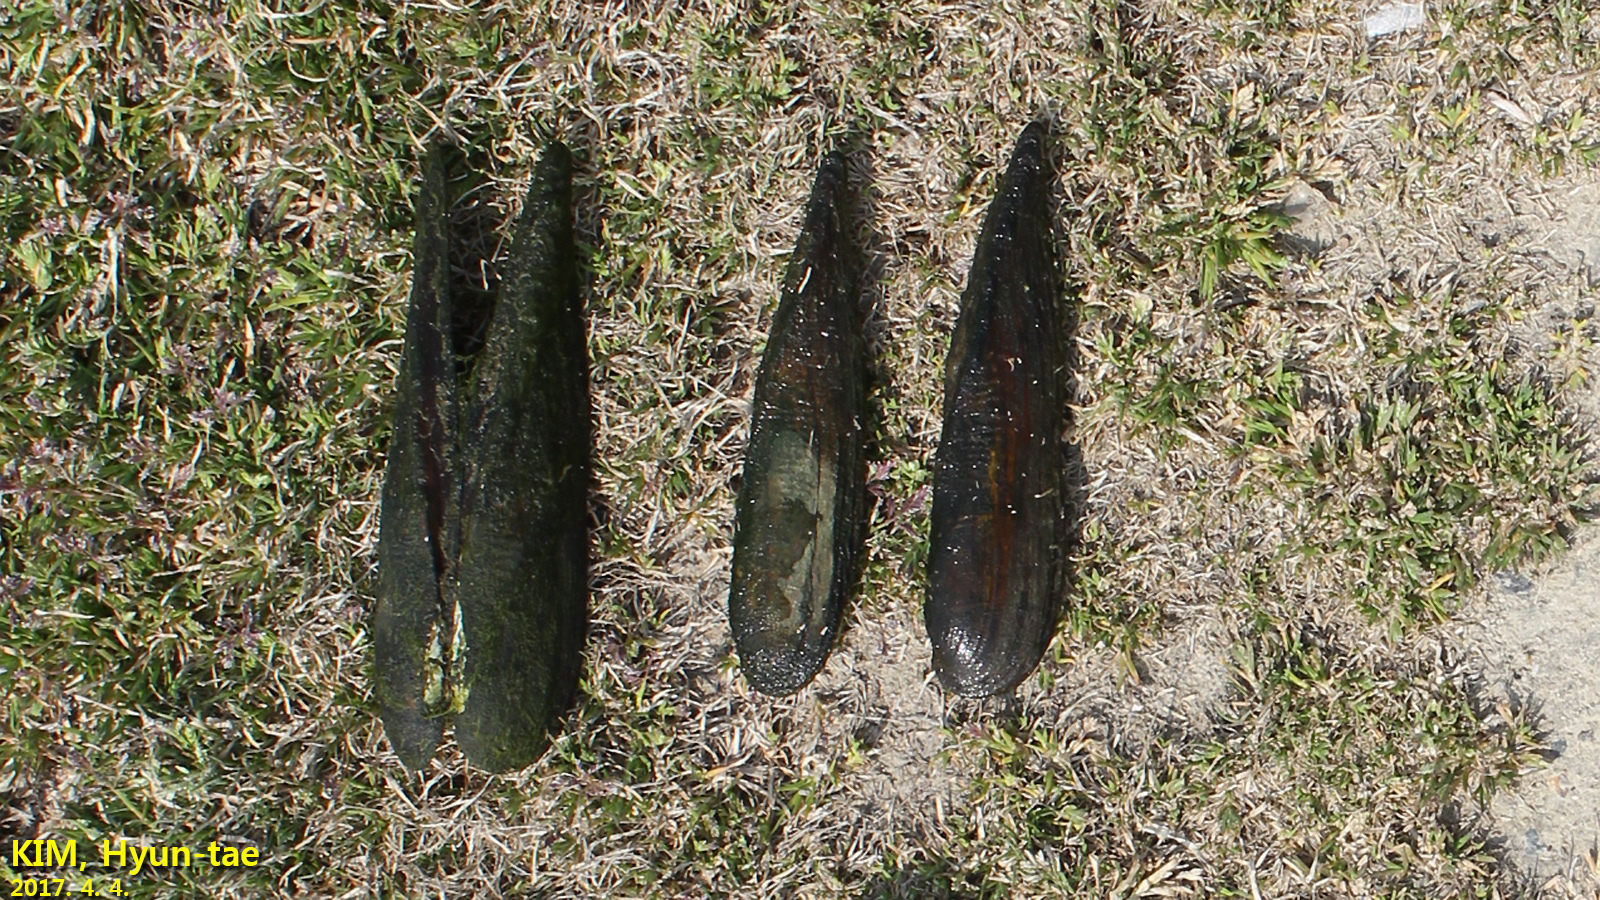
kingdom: Animalia
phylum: Mollusca
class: Bivalvia
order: Unionida
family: Unionidae
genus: Lanceolaria
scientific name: Lanceolaria acrorrhyncha
